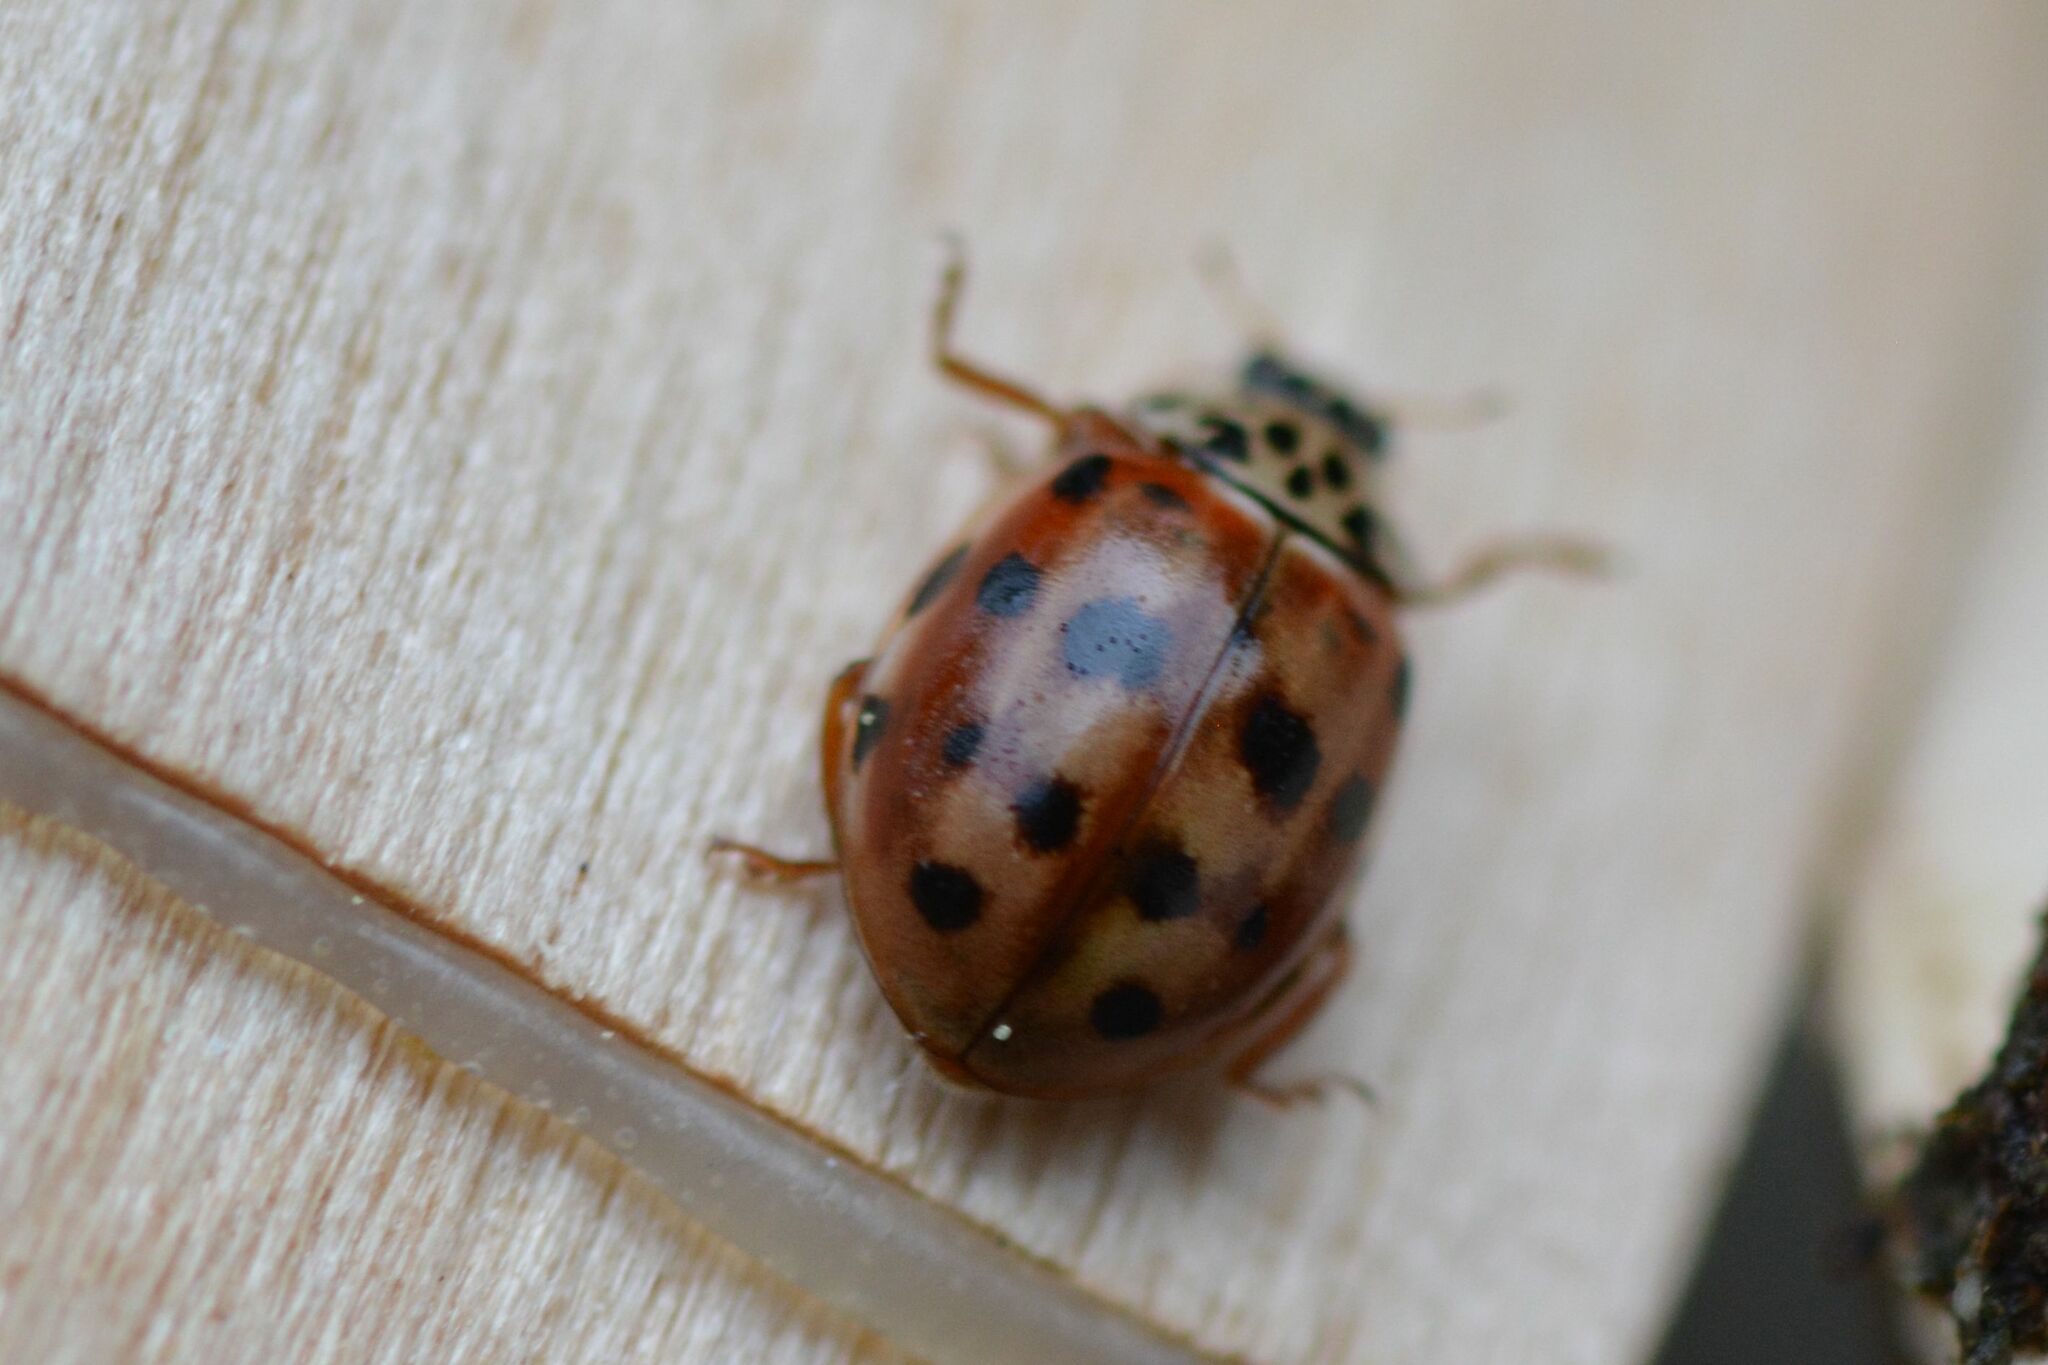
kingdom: Animalia
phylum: Arthropoda
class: Insecta
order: Coleoptera
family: Coccinellidae
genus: Harmonia
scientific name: Harmonia quadripunctata
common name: Cream-streaked ladybird
